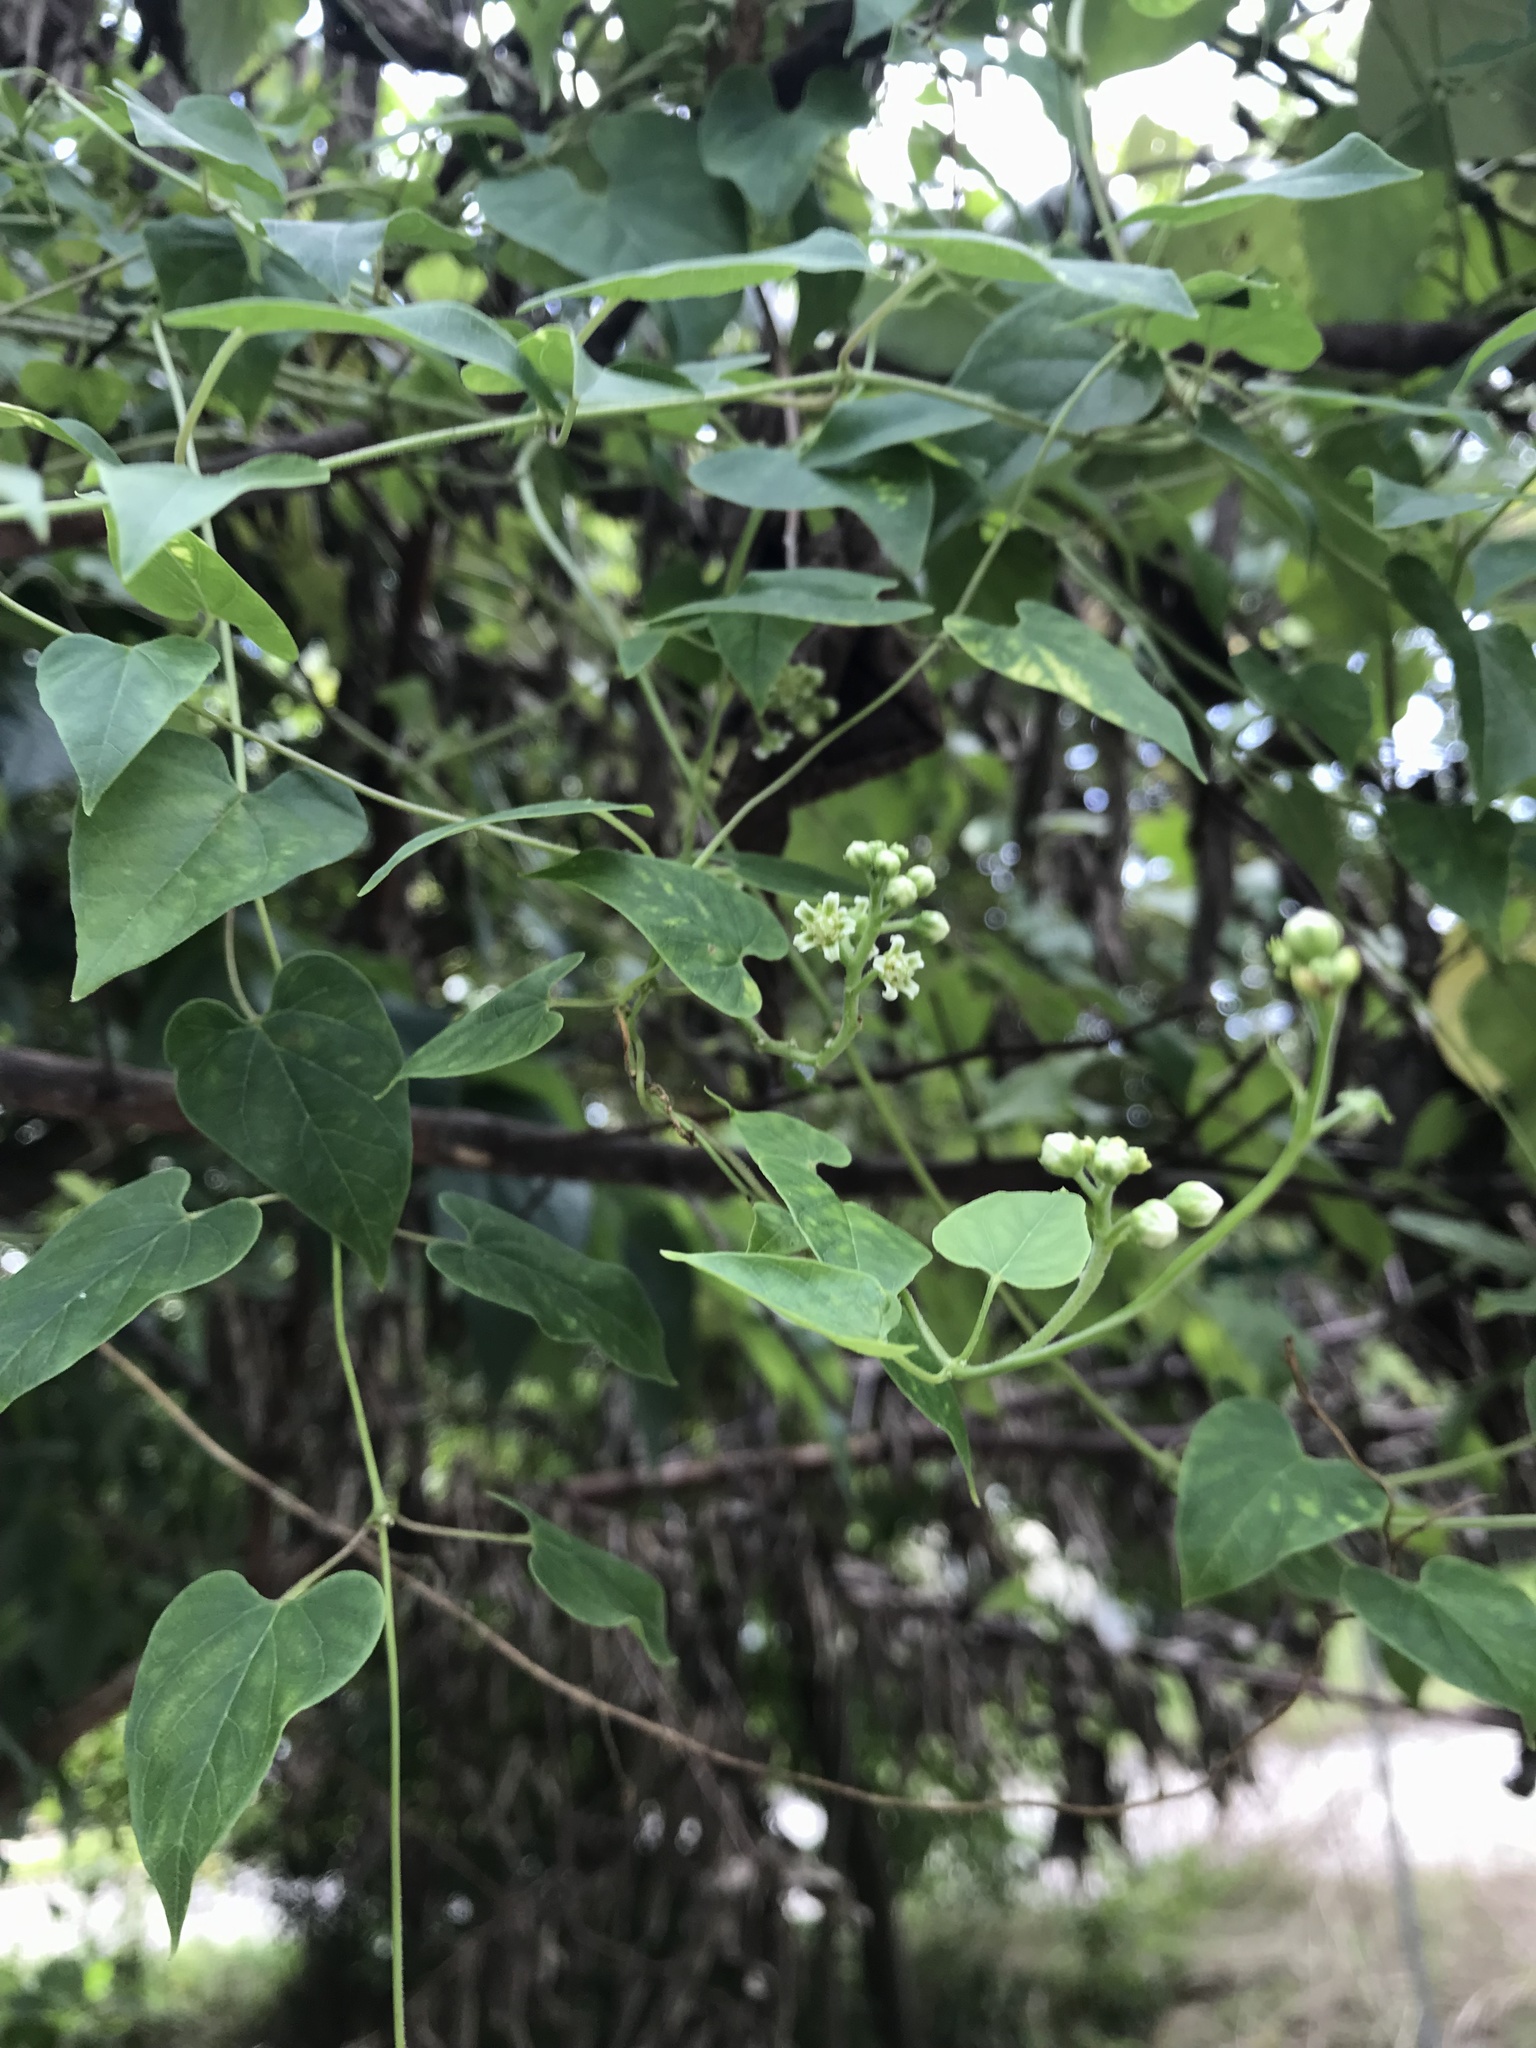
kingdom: Plantae
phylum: Tracheophyta
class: Magnoliopsida
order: Gentianales
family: Apocynaceae
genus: Cynanchum
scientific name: Cynanchum racemosum
